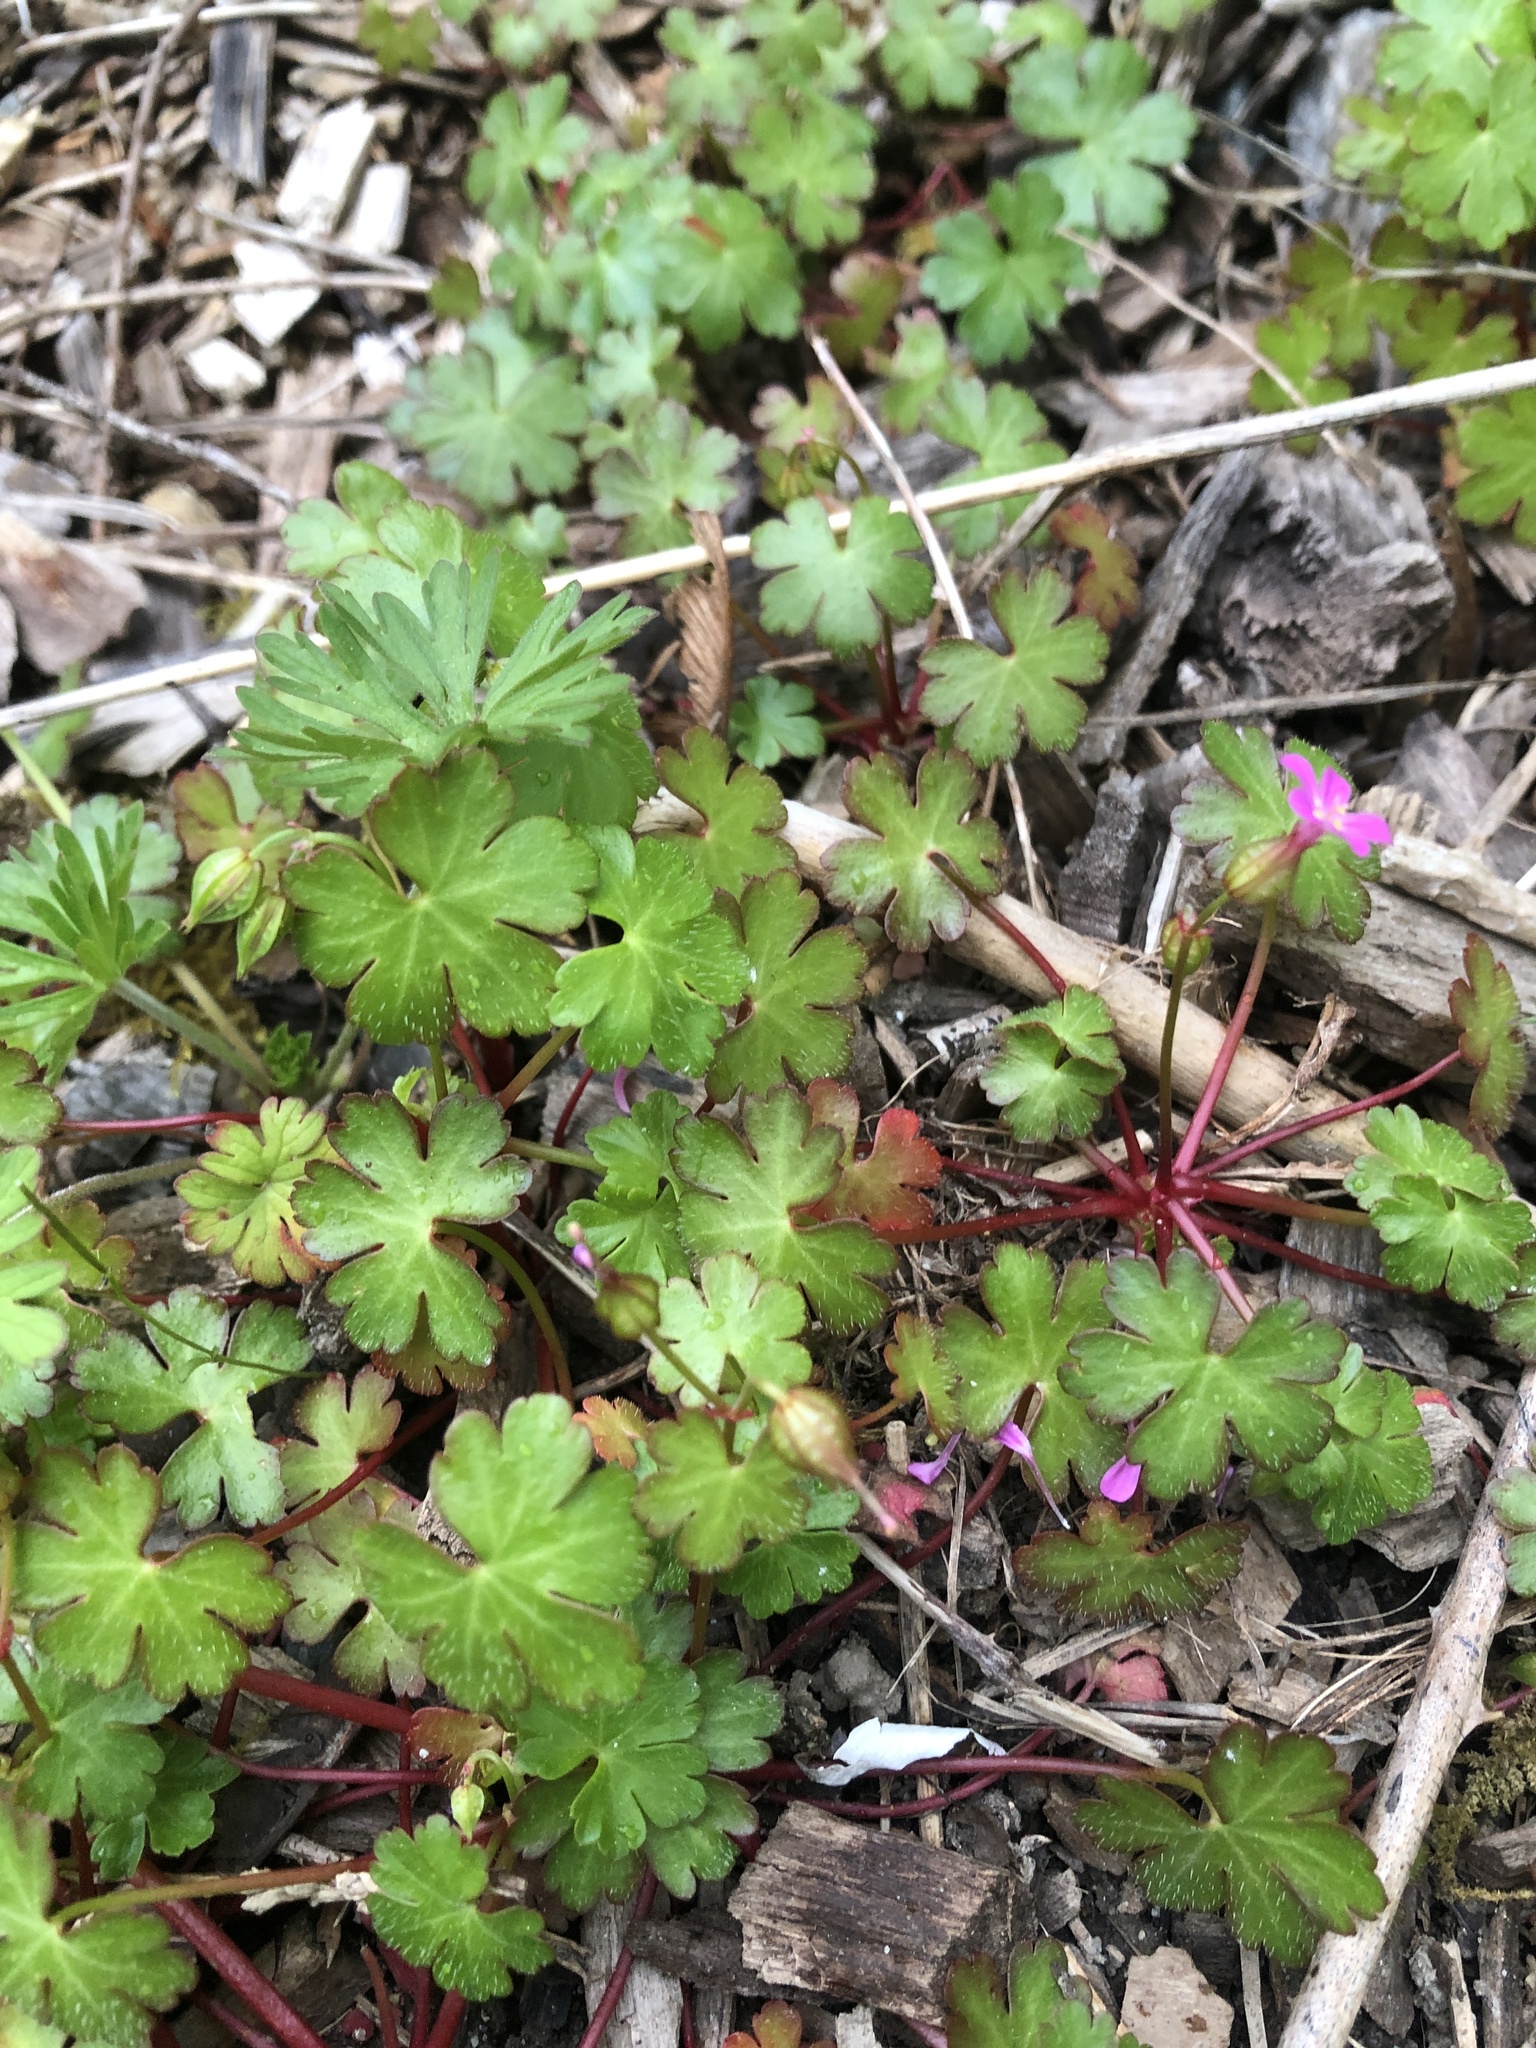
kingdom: Plantae
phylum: Tracheophyta
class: Magnoliopsida
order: Geraniales
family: Geraniaceae
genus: Geranium
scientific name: Geranium lucidum
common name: Shining crane's-bill
